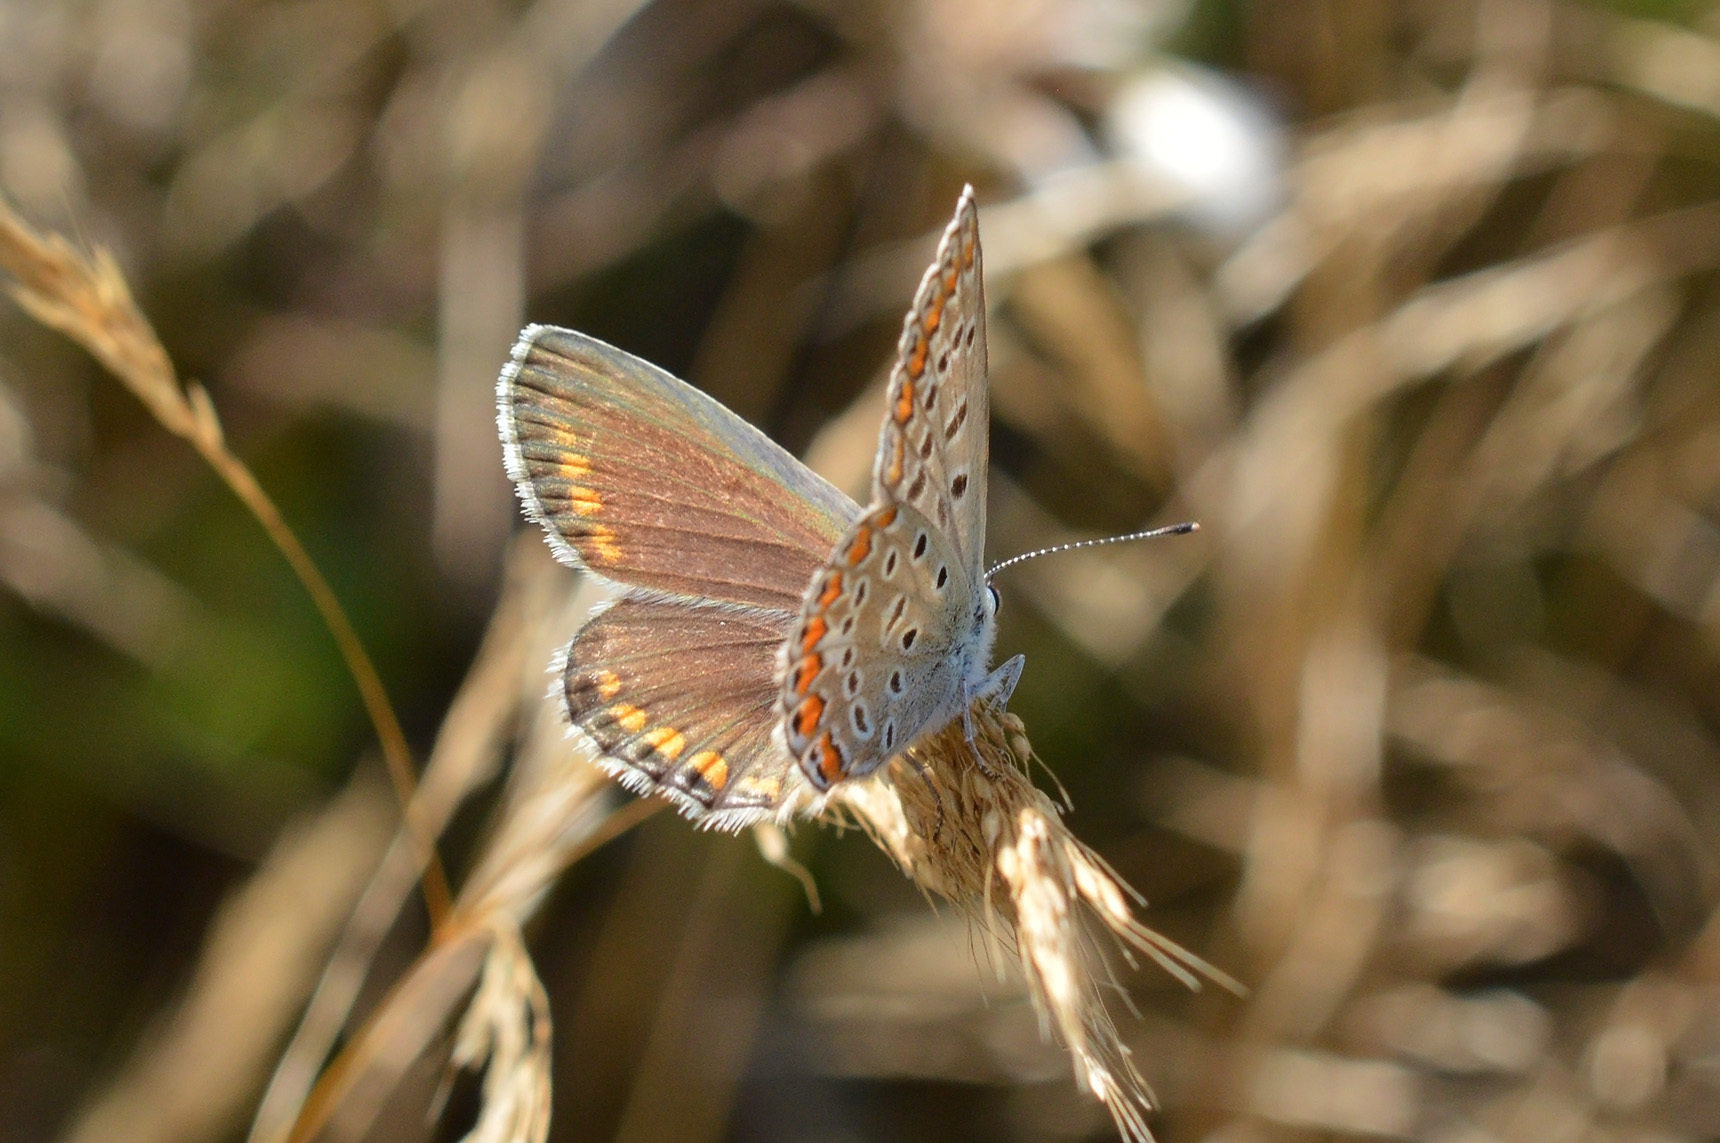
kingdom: Animalia
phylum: Arthropoda
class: Insecta
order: Lepidoptera
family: Lycaenidae
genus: Polyommatus
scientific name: Polyommatus icarus
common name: Common blue
